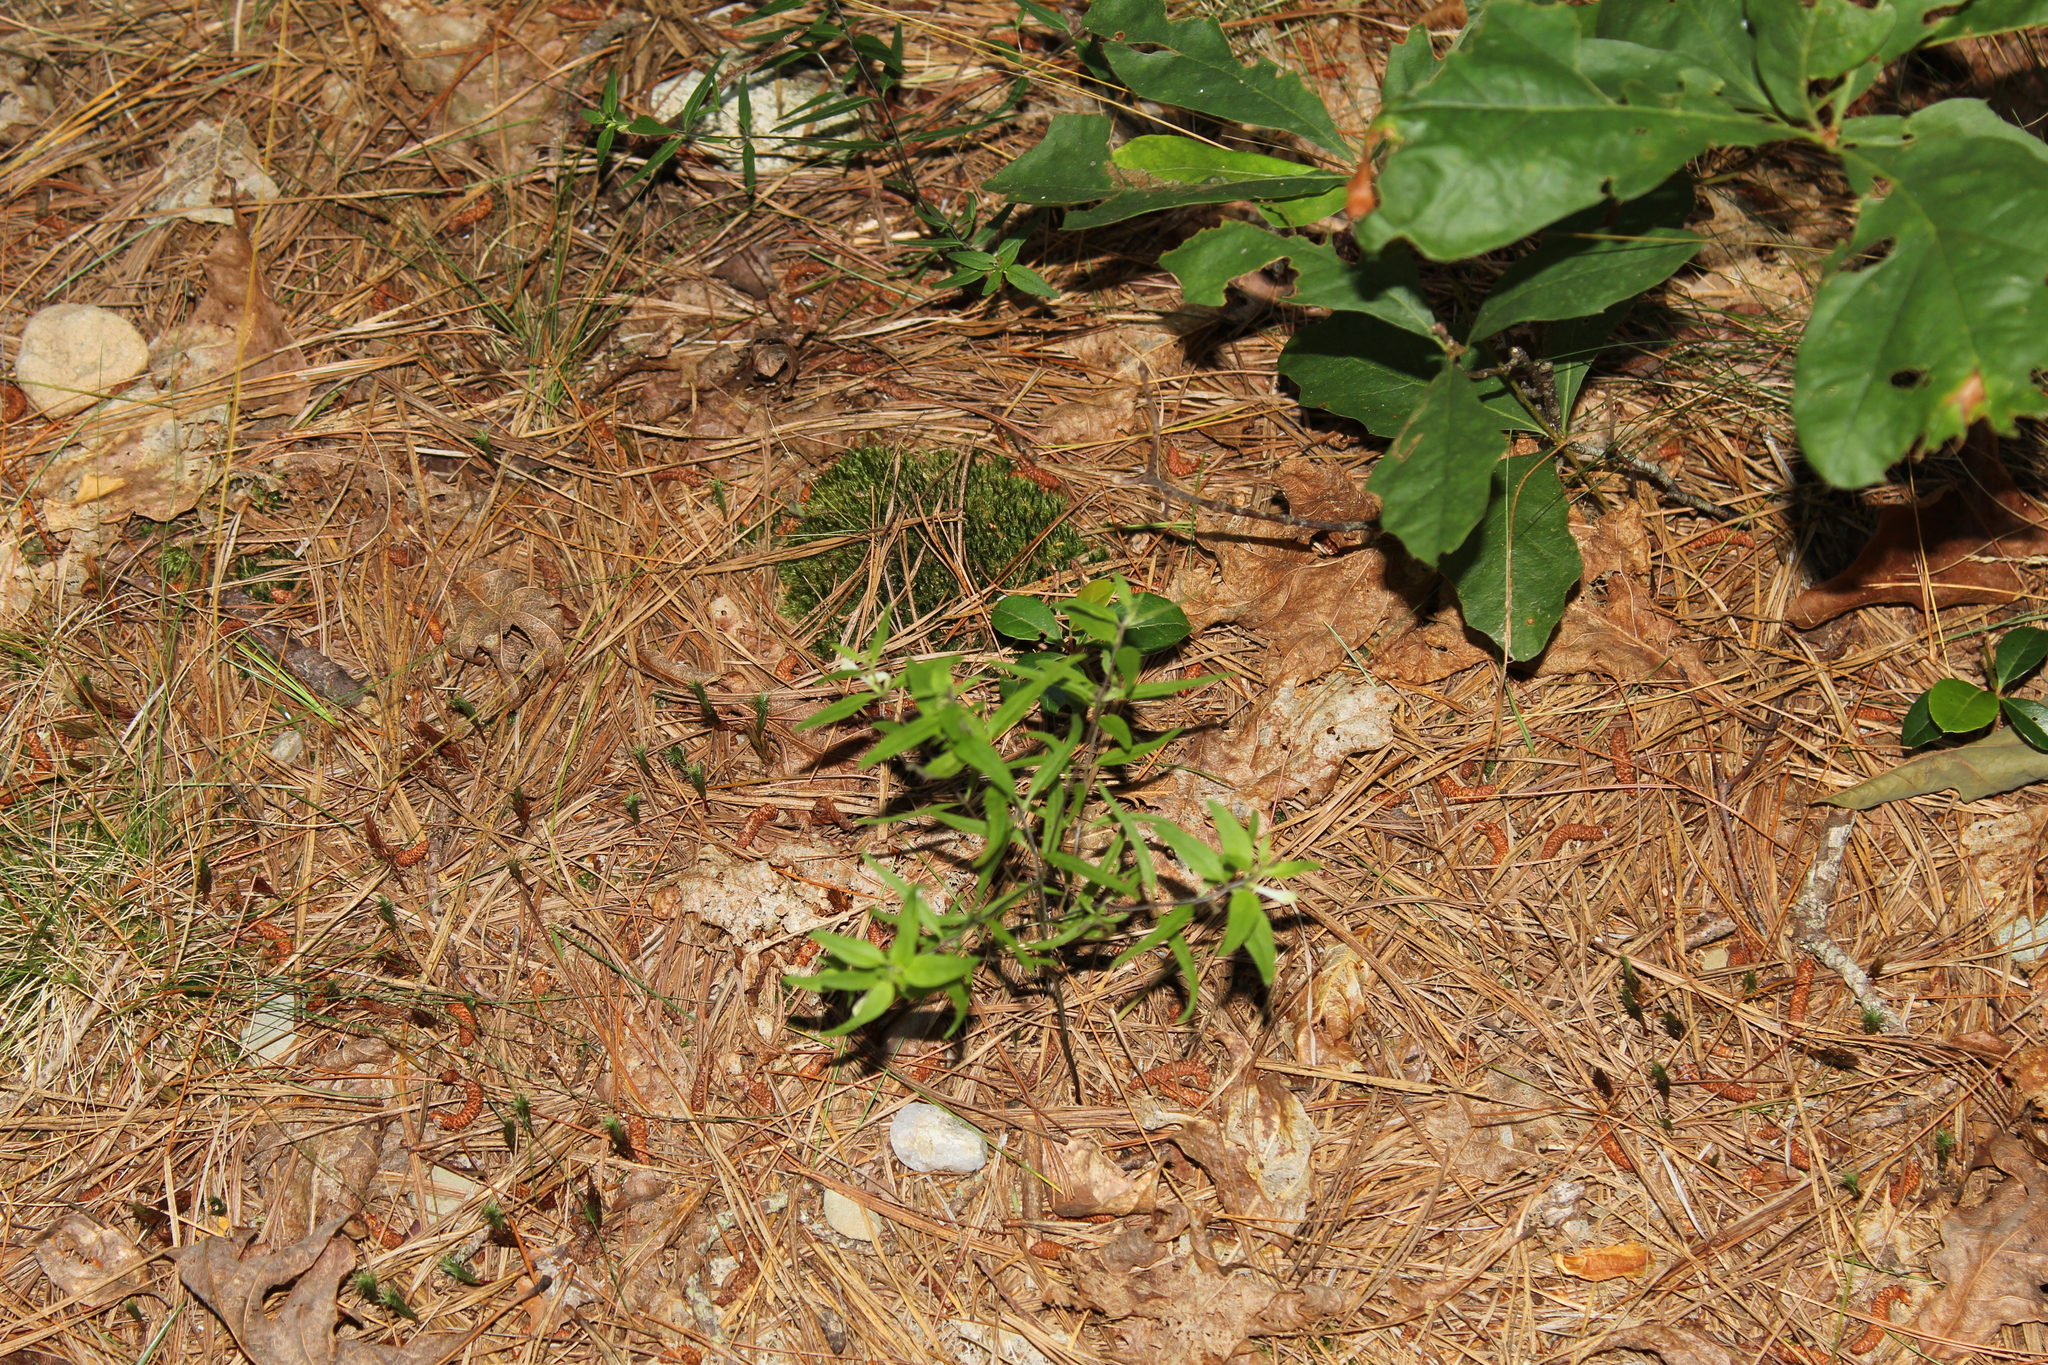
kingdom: Plantae
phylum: Tracheophyta
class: Magnoliopsida
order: Lamiales
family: Orobanchaceae
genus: Melampyrum
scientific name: Melampyrum lineare
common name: American cow-wheat
